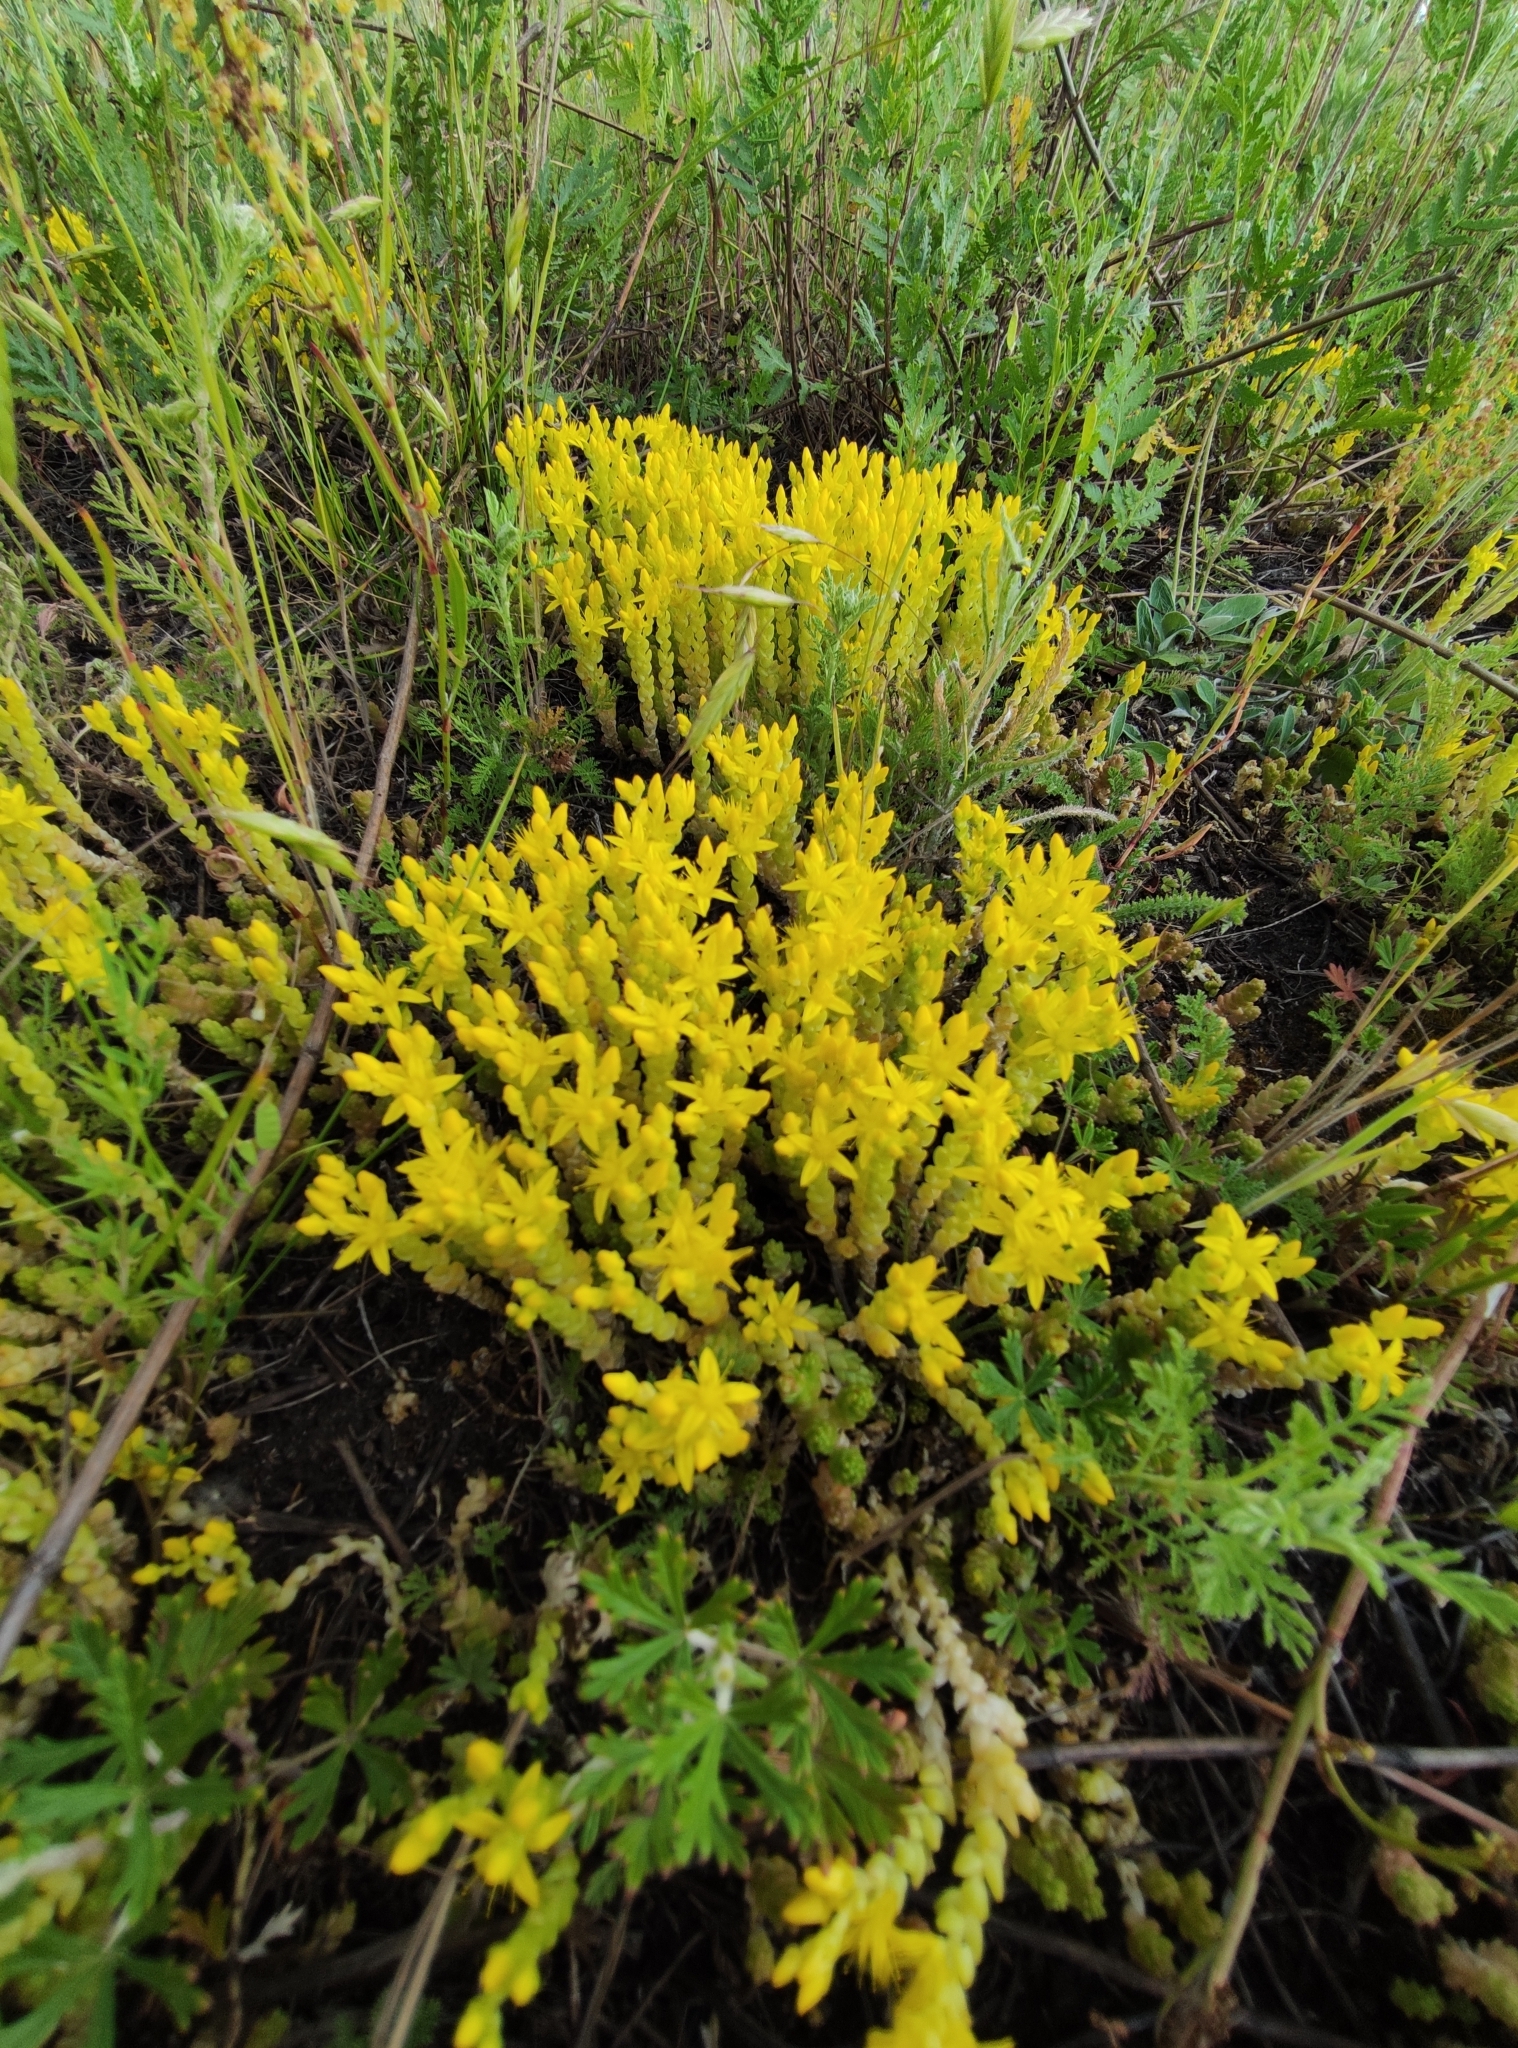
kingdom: Plantae
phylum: Tracheophyta
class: Magnoliopsida
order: Saxifragales
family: Crassulaceae
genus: Sedum
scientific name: Sedum acre
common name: Biting stonecrop
